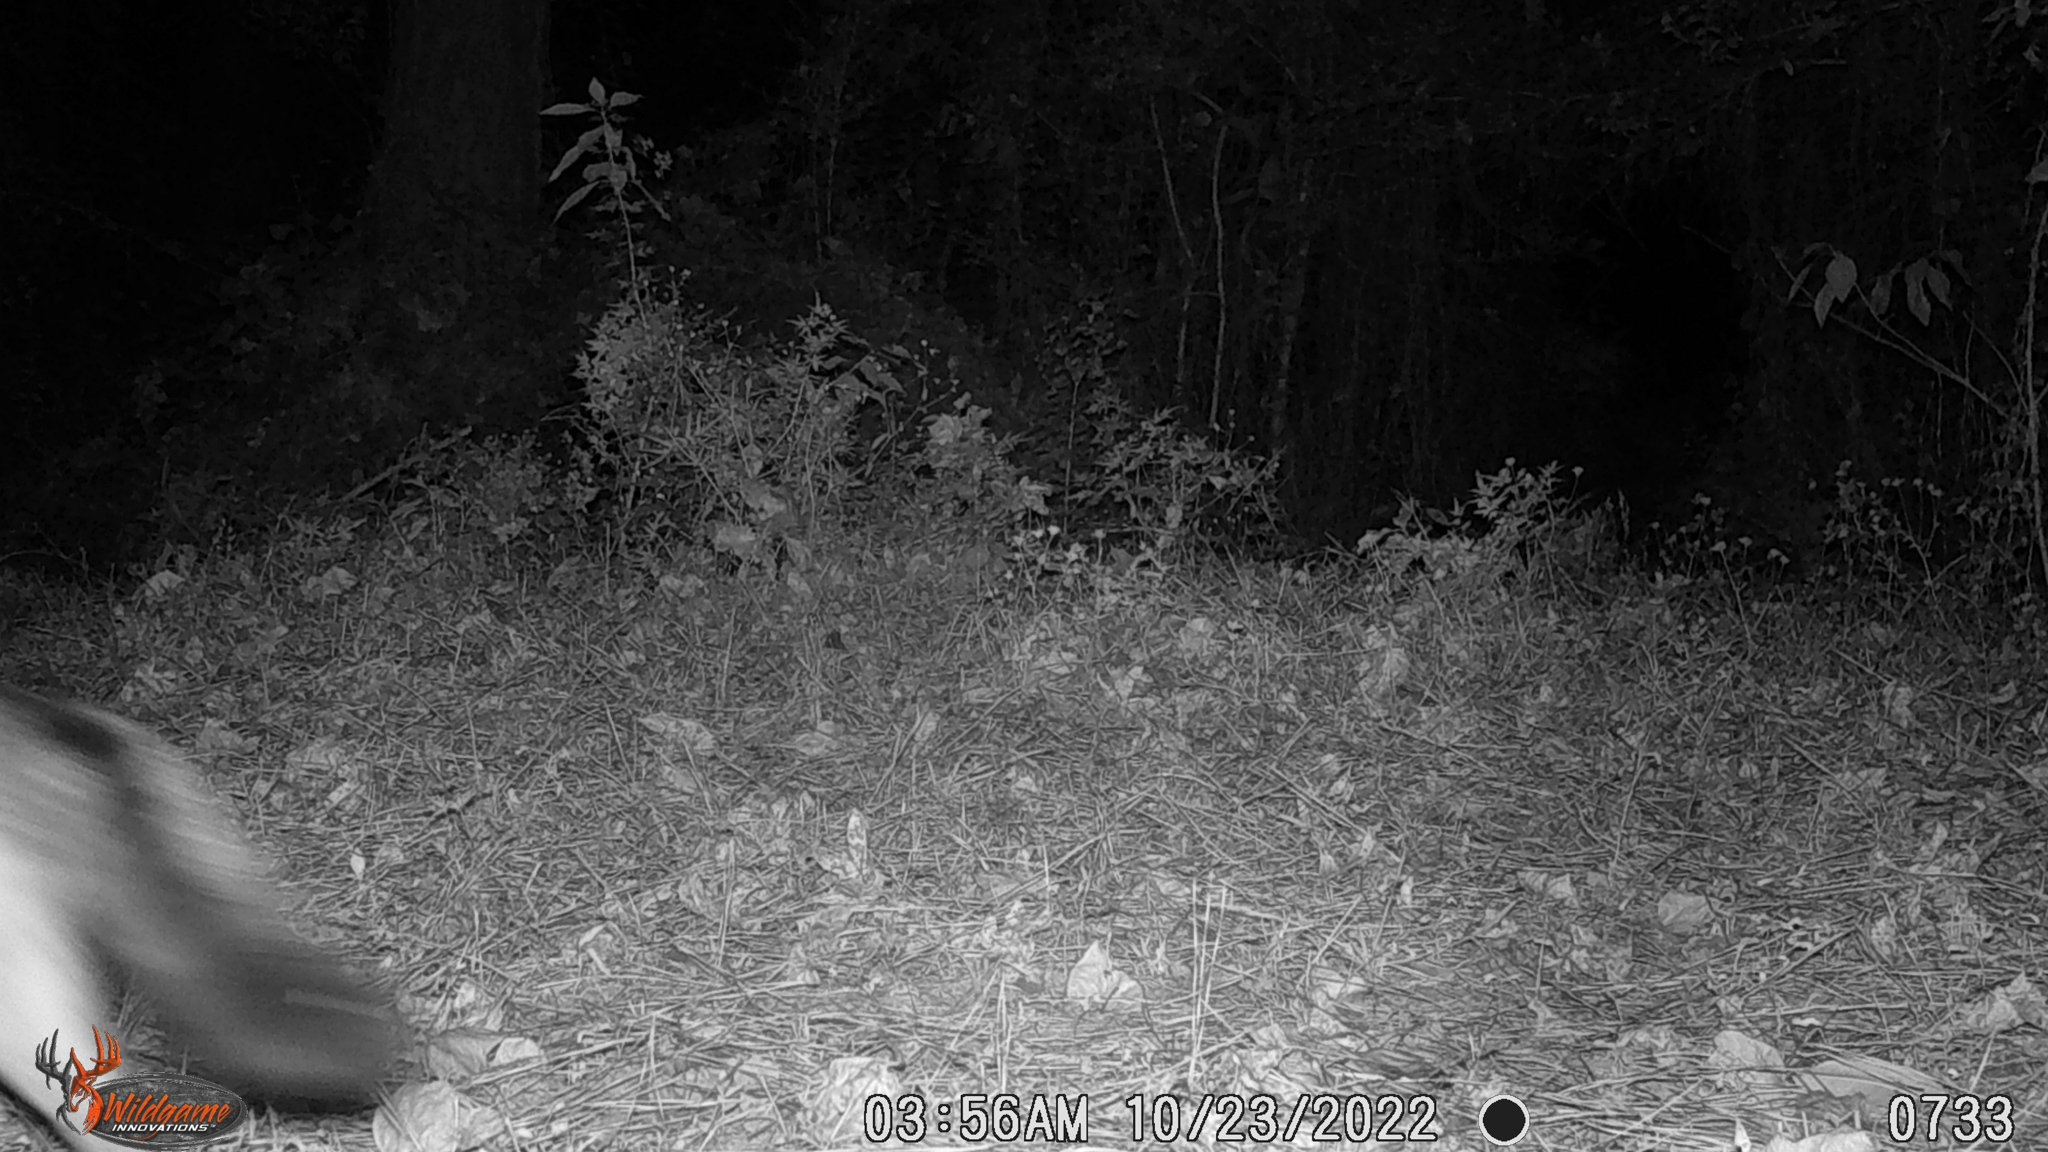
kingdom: Animalia
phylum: Chordata
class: Mammalia
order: Carnivora
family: Canidae
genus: Urocyon
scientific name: Urocyon cinereoargenteus
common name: Gray fox
